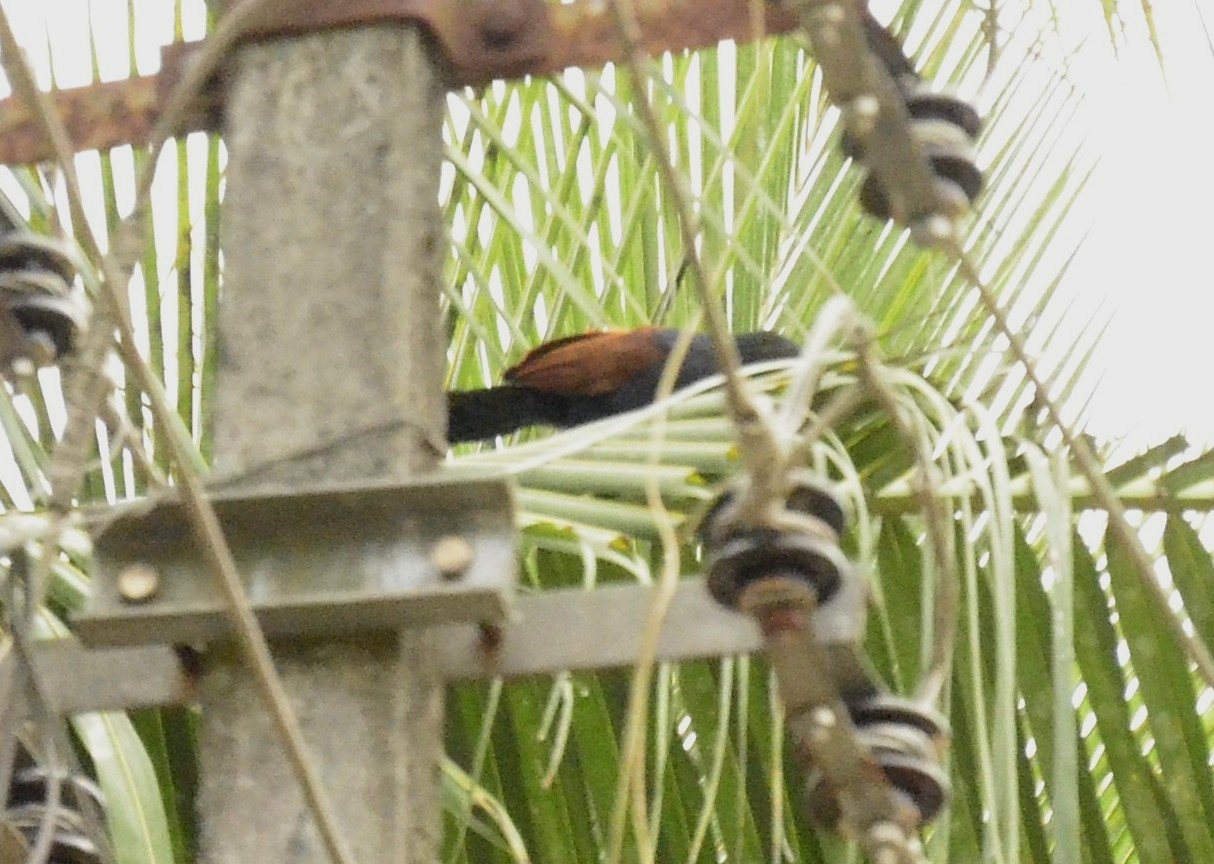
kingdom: Animalia
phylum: Chordata
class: Aves
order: Cuculiformes
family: Cuculidae
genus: Centropus
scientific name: Centropus sinensis
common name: Greater coucal
